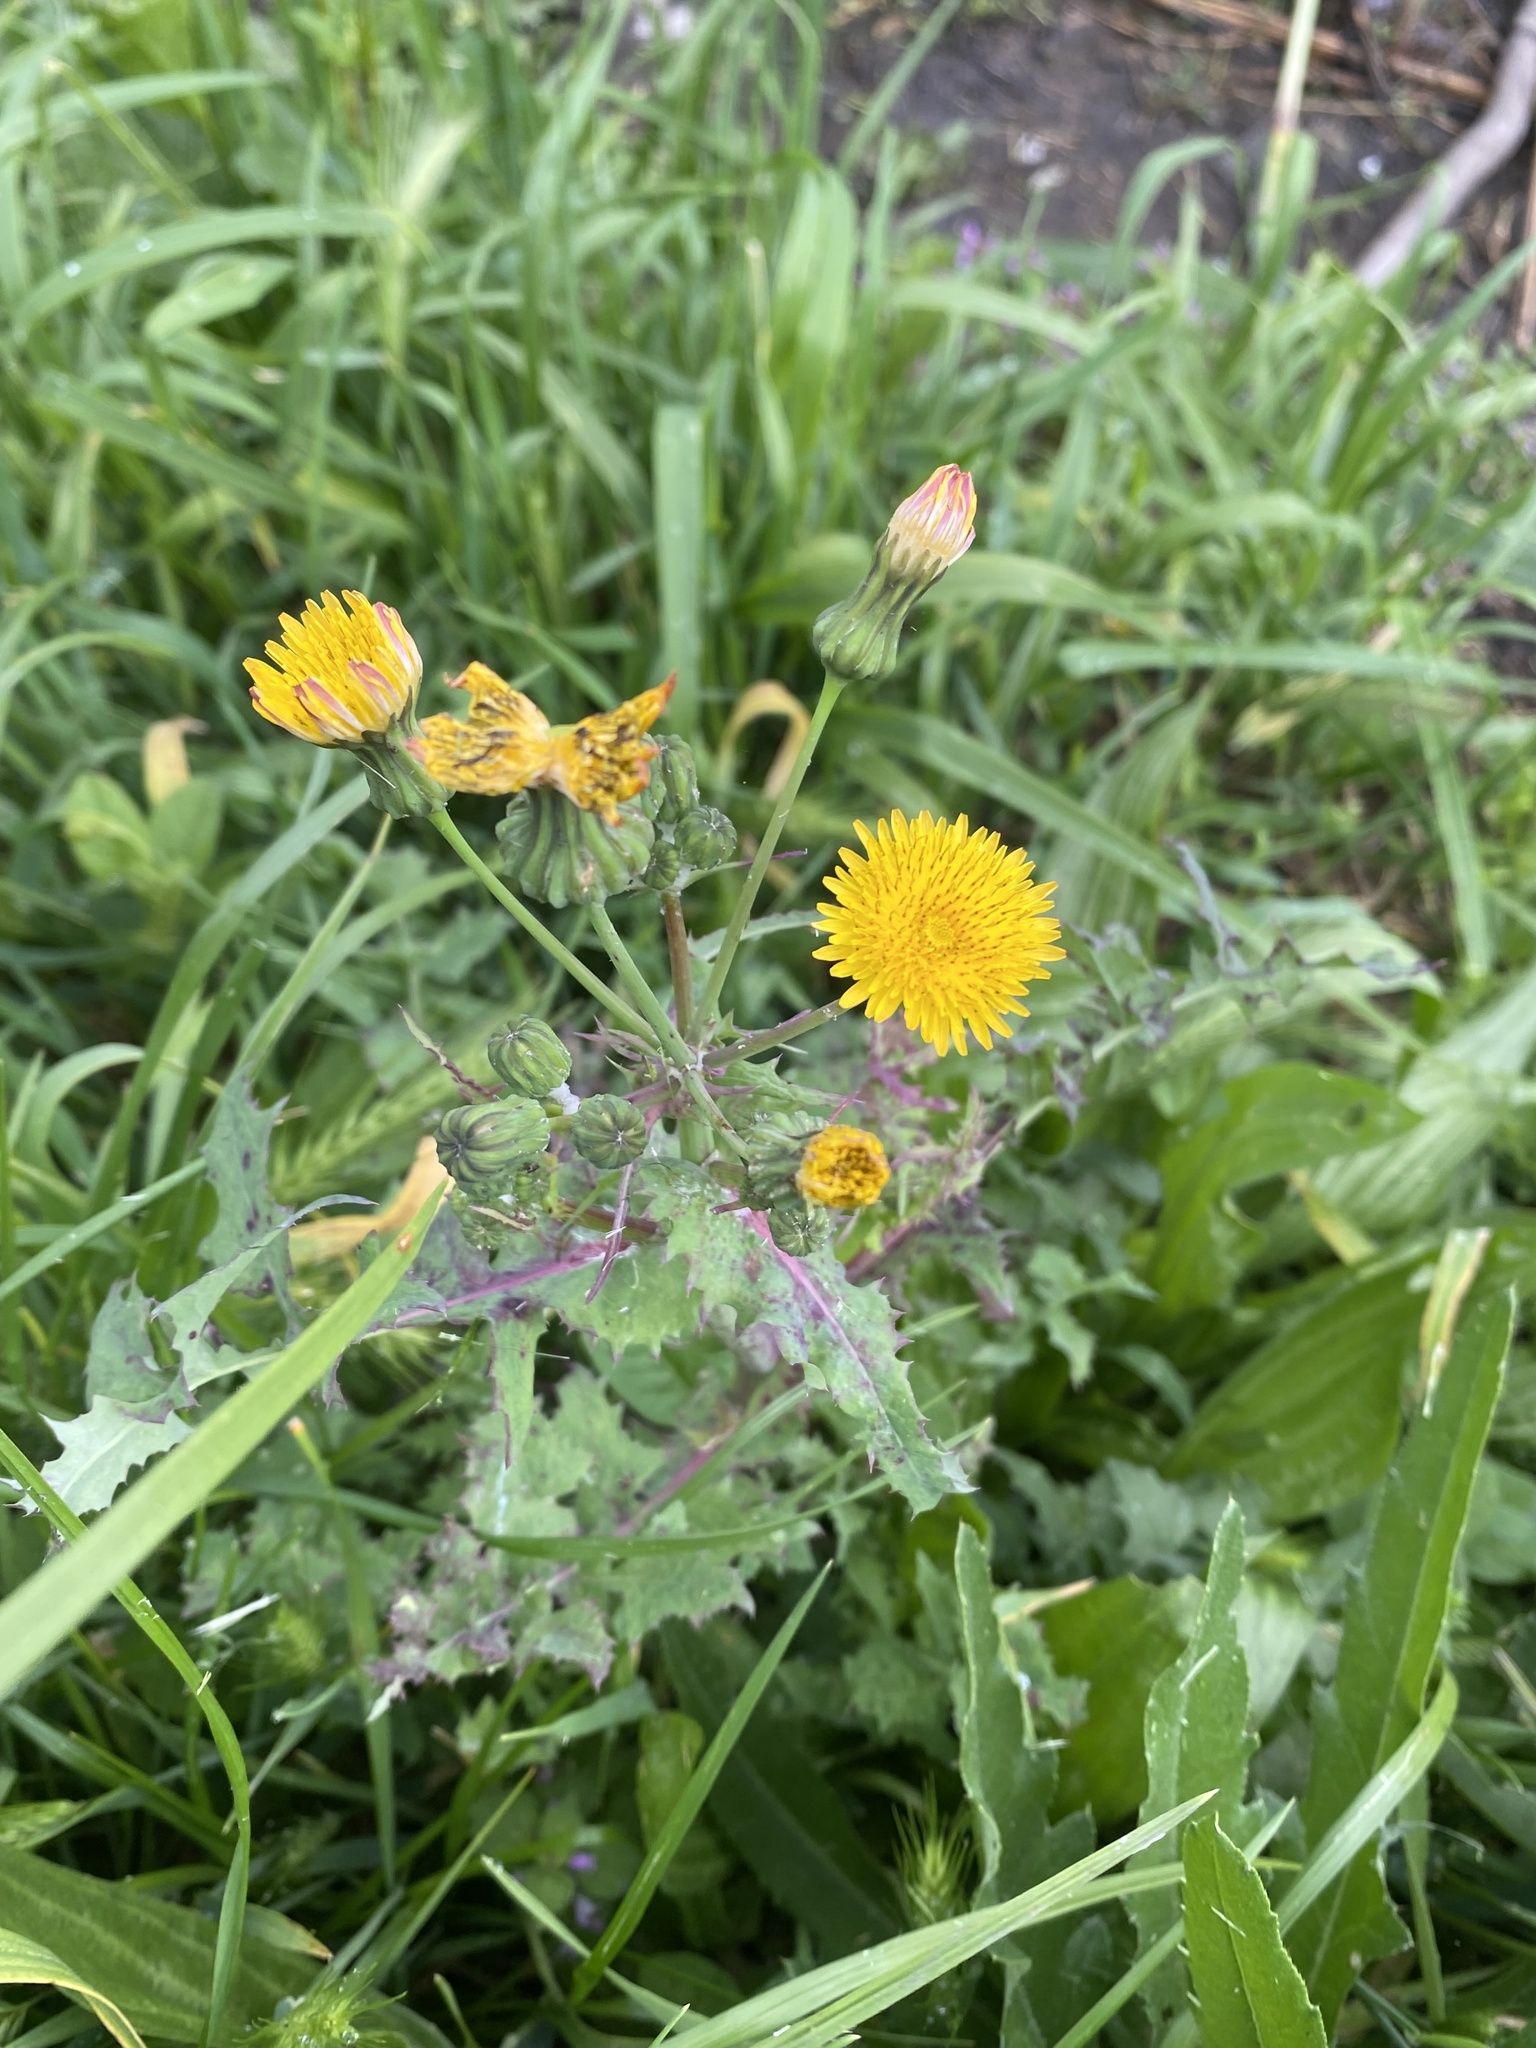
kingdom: Plantae
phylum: Tracheophyta
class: Magnoliopsida
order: Asterales
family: Asteraceae
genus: Sonchus
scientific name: Sonchus oleraceus
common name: Common sowthistle
